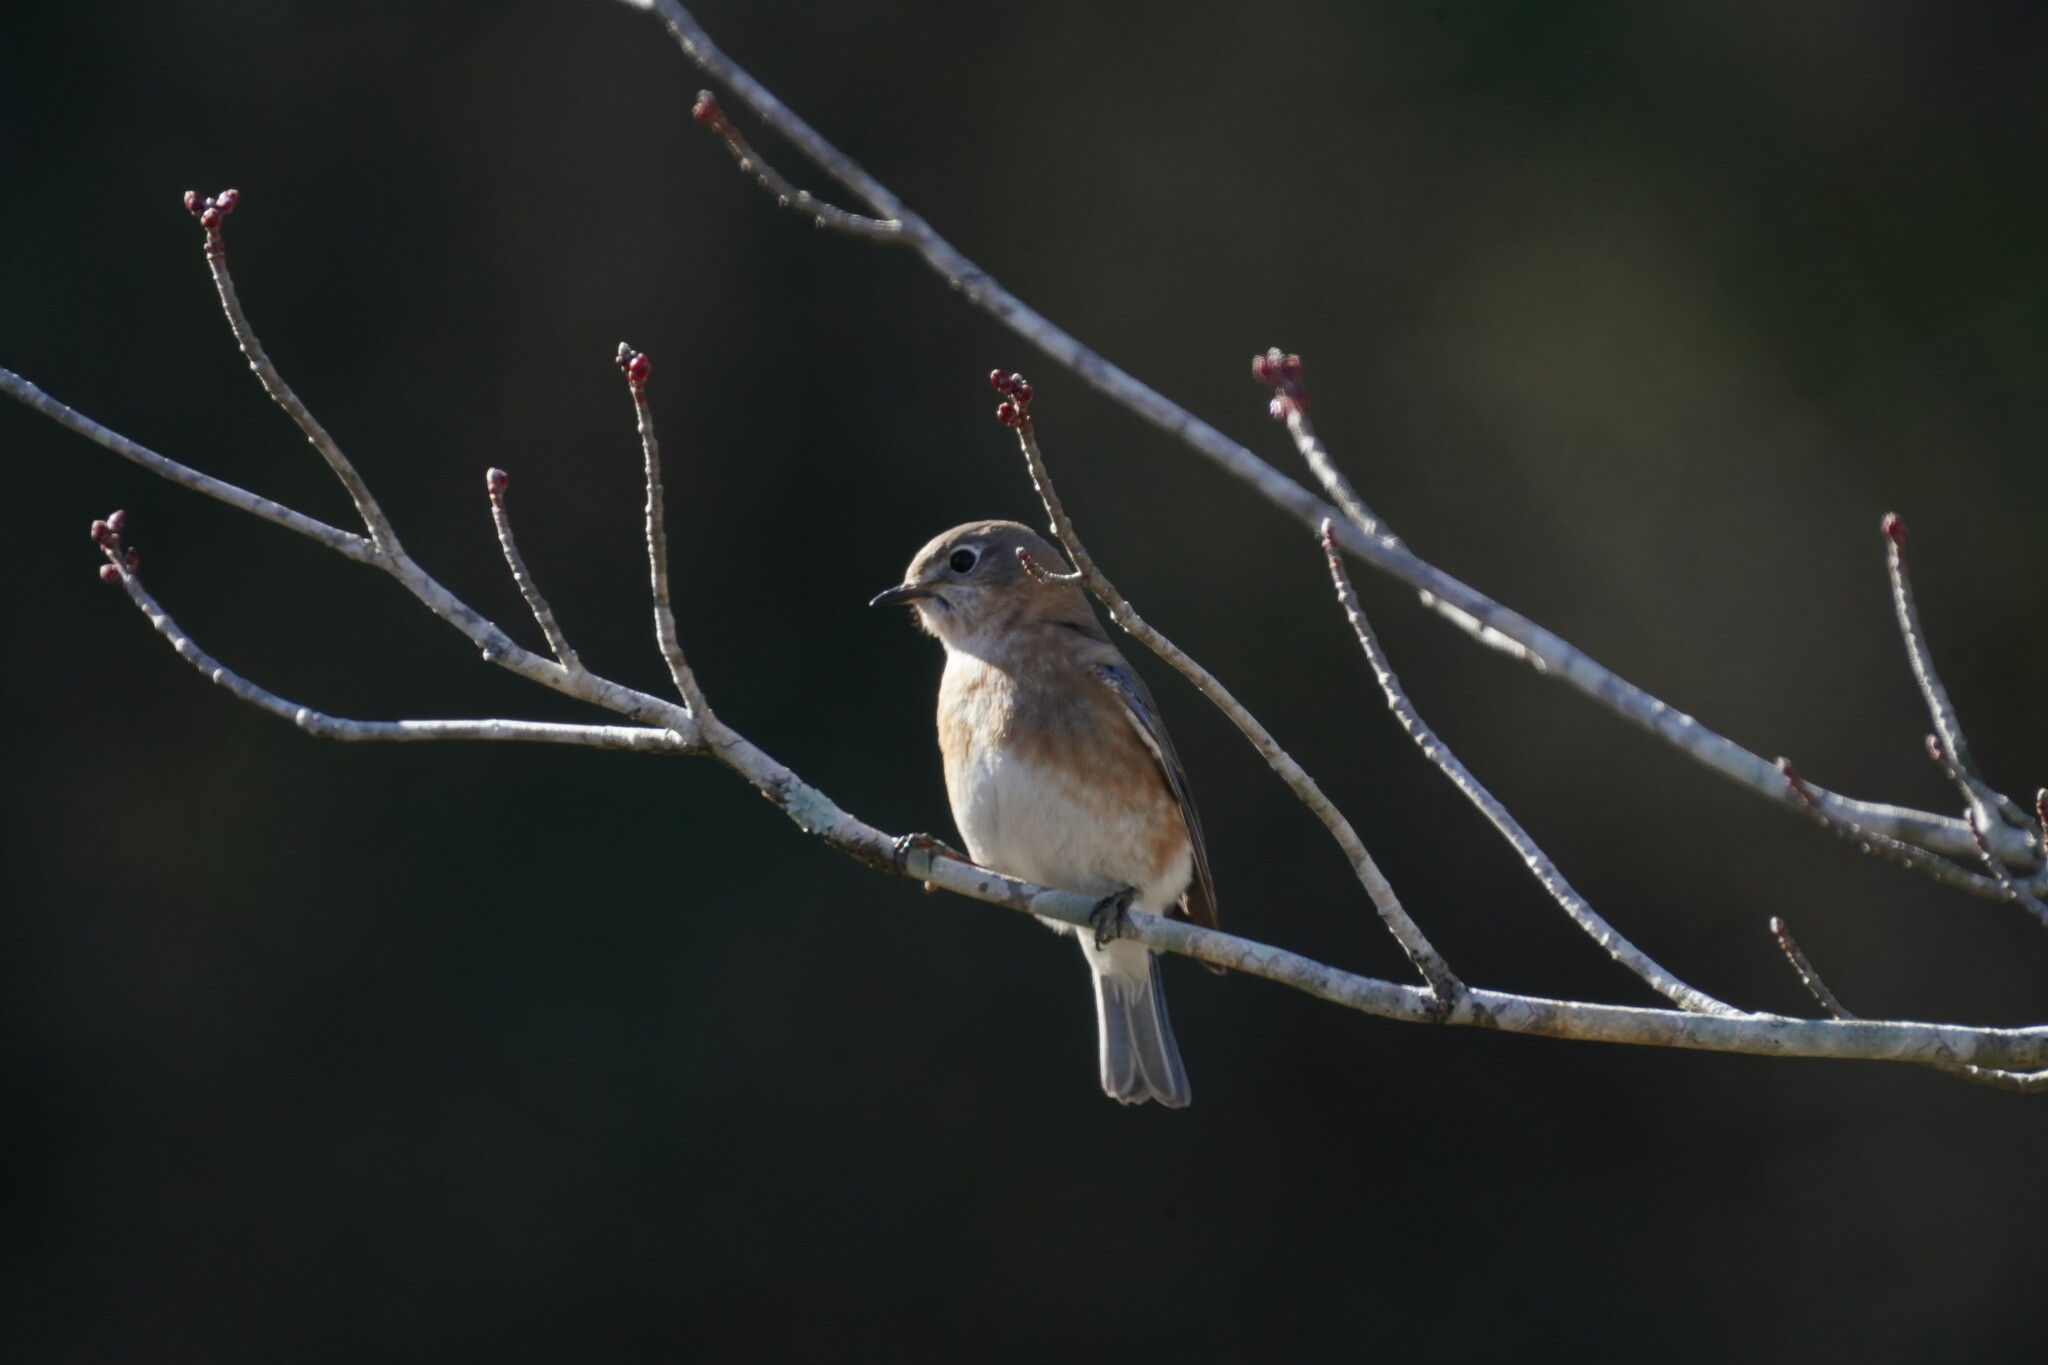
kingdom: Animalia
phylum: Chordata
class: Aves
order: Passeriformes
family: Turdidae
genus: Sialia
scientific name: Sialia sialis
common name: Eastern bluebird
